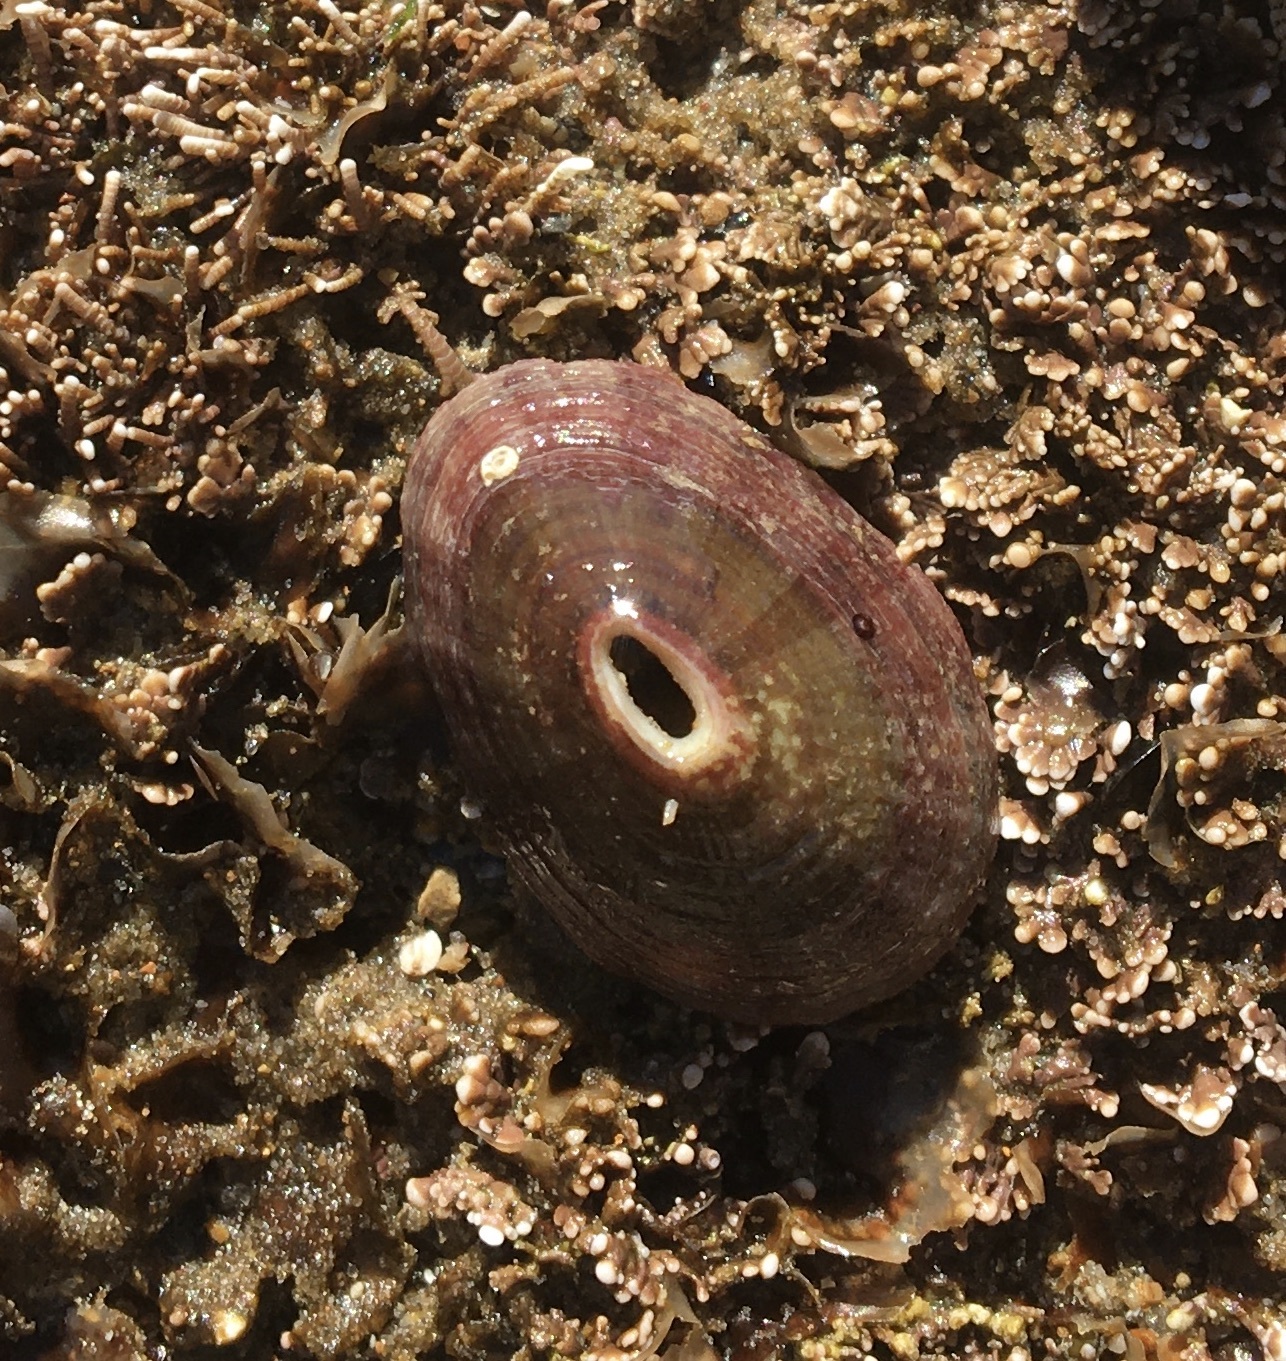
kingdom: Animalia
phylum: Mollusca
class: Gastropoda
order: Lepetellida
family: Fissurellidae
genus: Fissurella
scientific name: Fissurella volcano
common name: Volcano keyhole limpet
